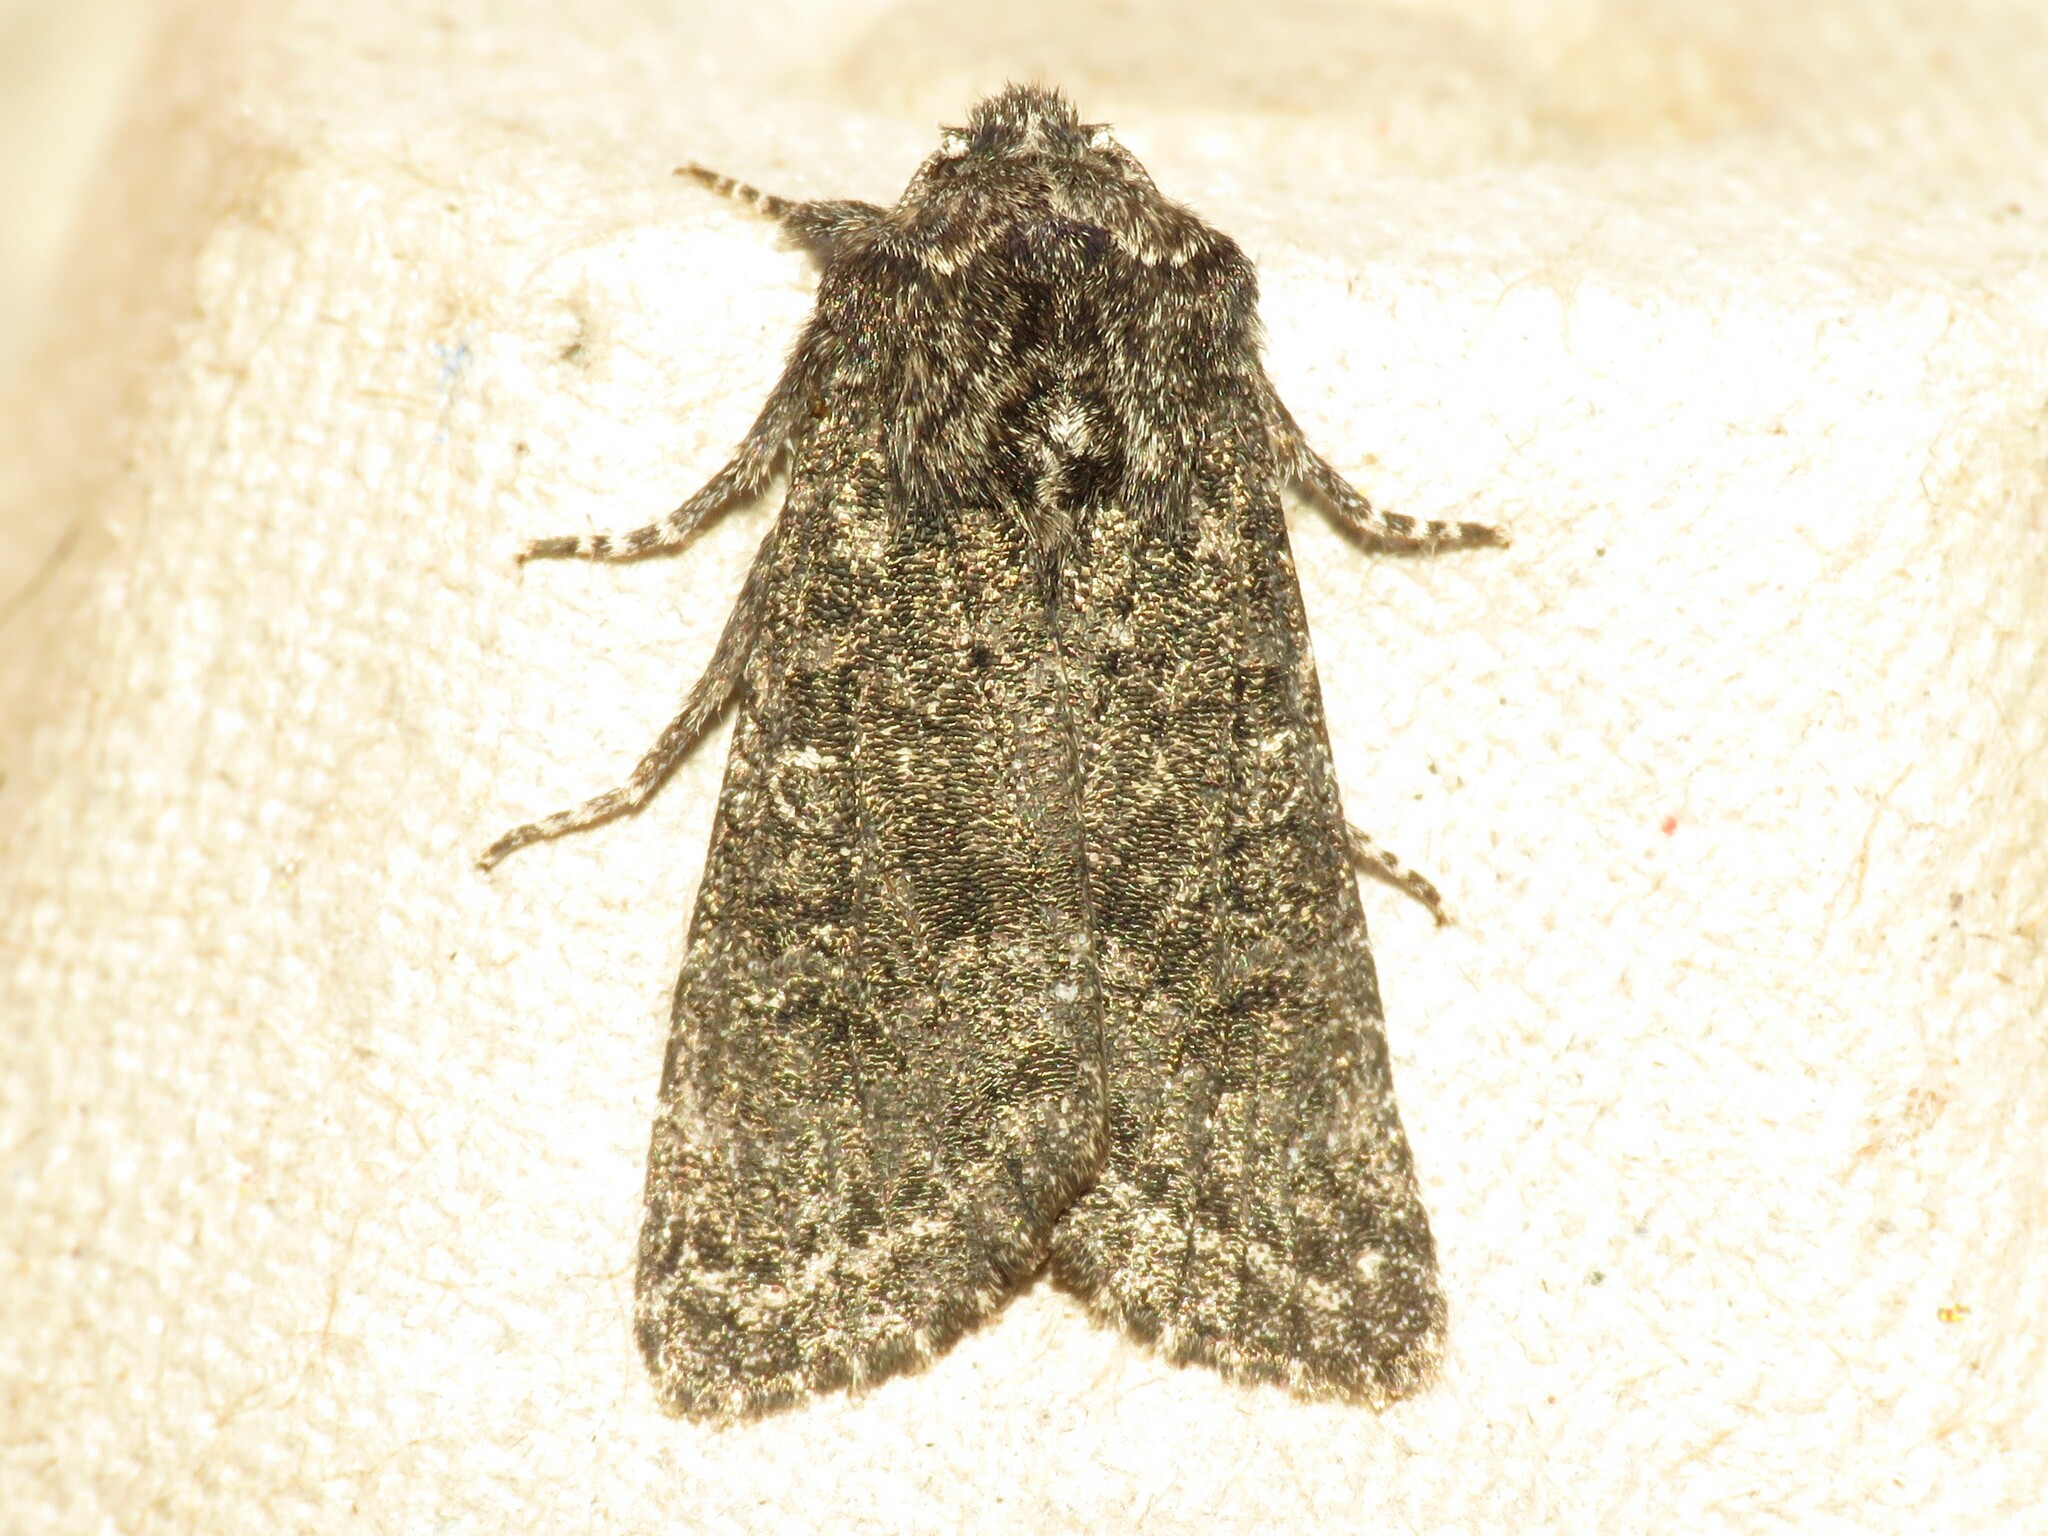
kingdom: Animalia
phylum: Arthropoda
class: Insecta
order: Lepidoptera
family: Noctuidae
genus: Egira
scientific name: Egira dolosa
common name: Lined black aspen cat.
